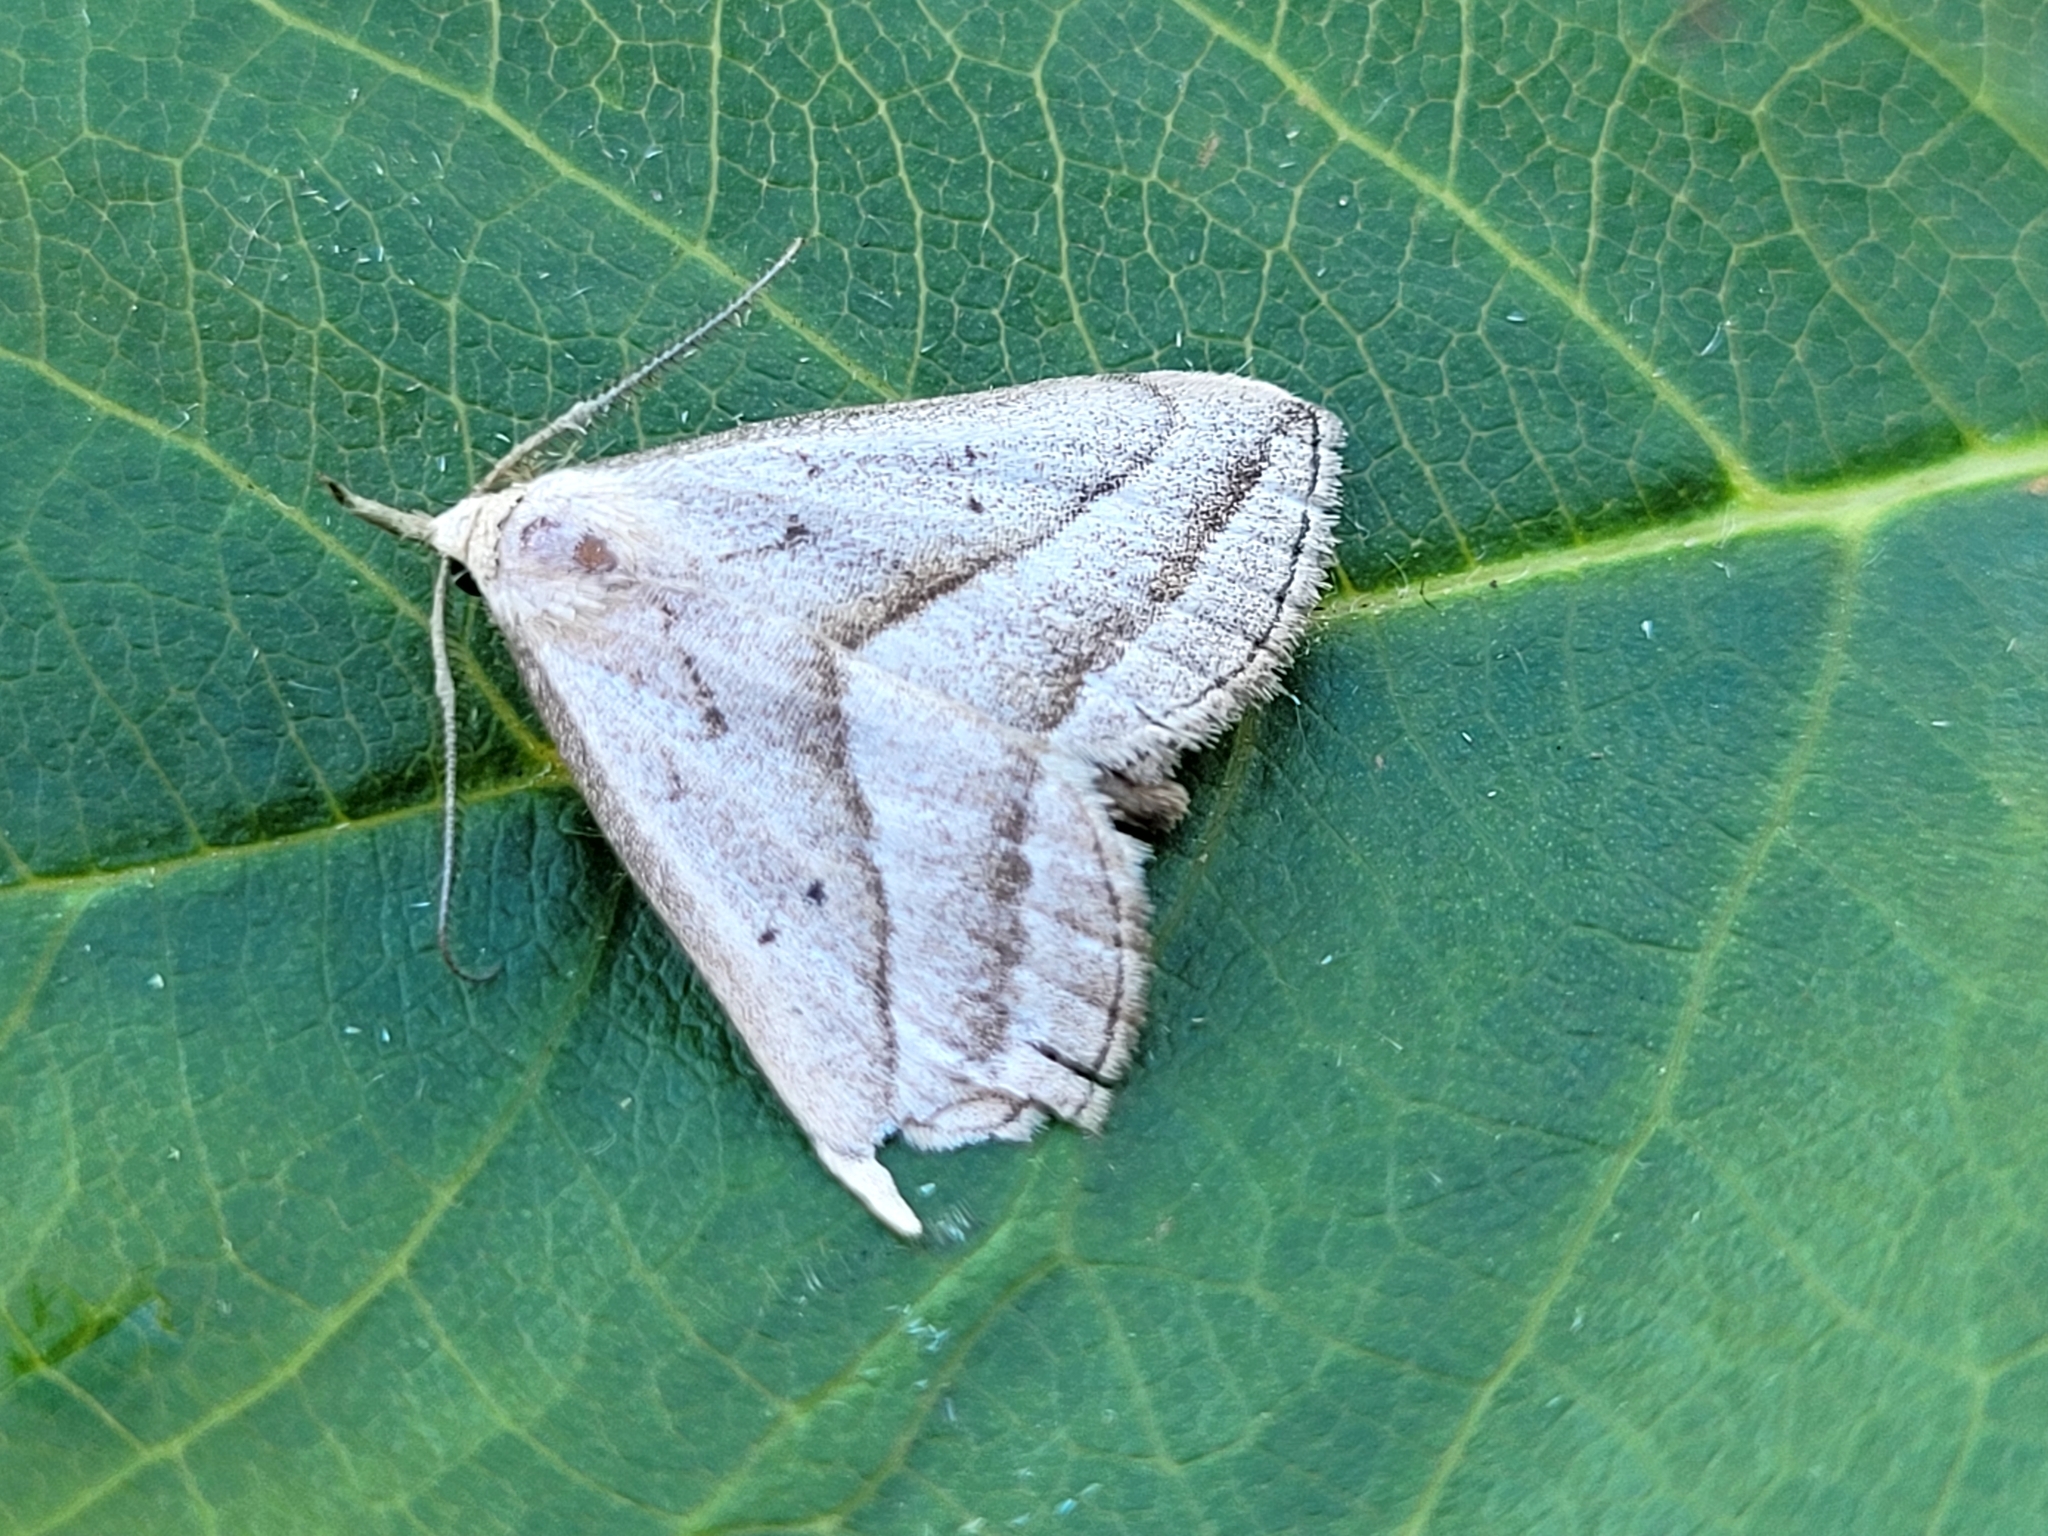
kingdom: Animalia
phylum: Arthropoda
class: Insecta
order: Lepidoptera
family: Erebidae
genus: Macrochilo
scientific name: Macrochilo absorptalis
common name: Slant-lined owlet
